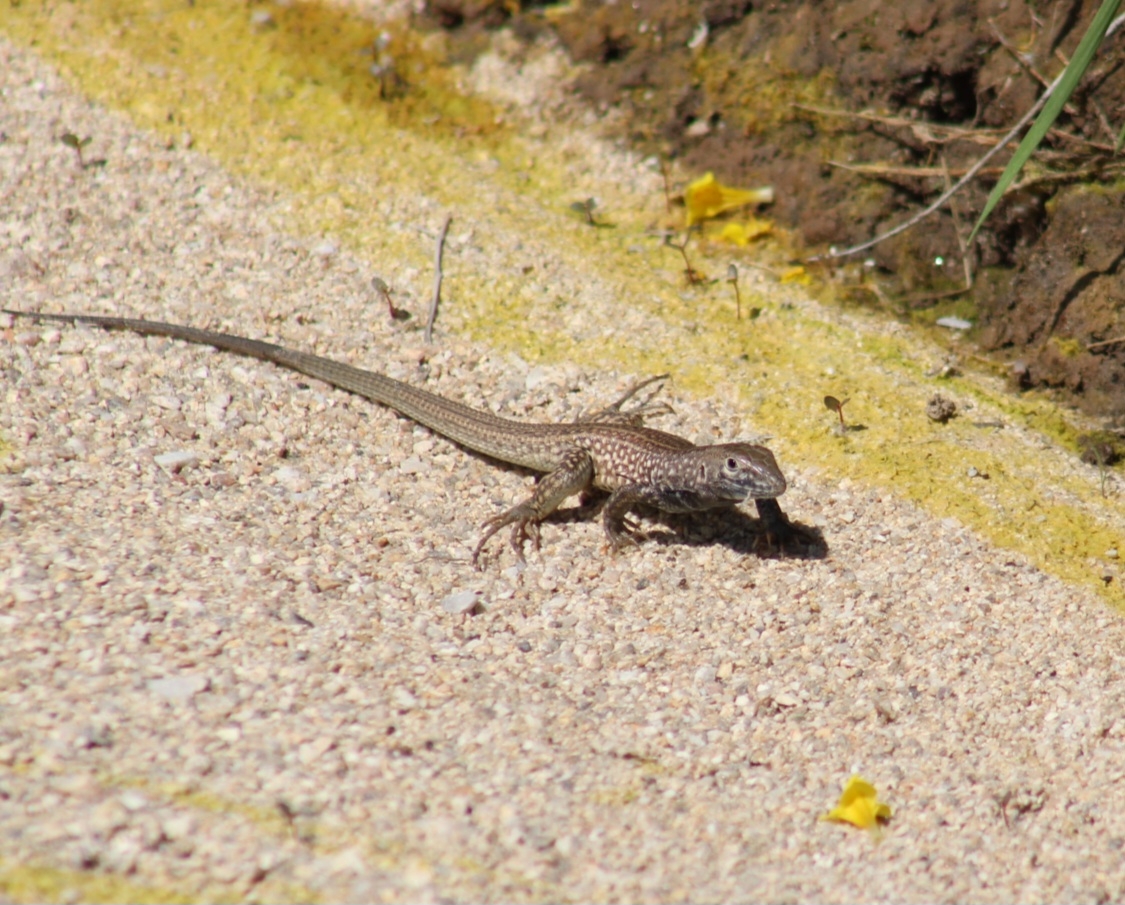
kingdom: Animalia
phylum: Chordata
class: Squamata
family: Teiidae
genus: Aspidoscelis
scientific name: Aspidoscelis tigris
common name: Tiger whiptail
